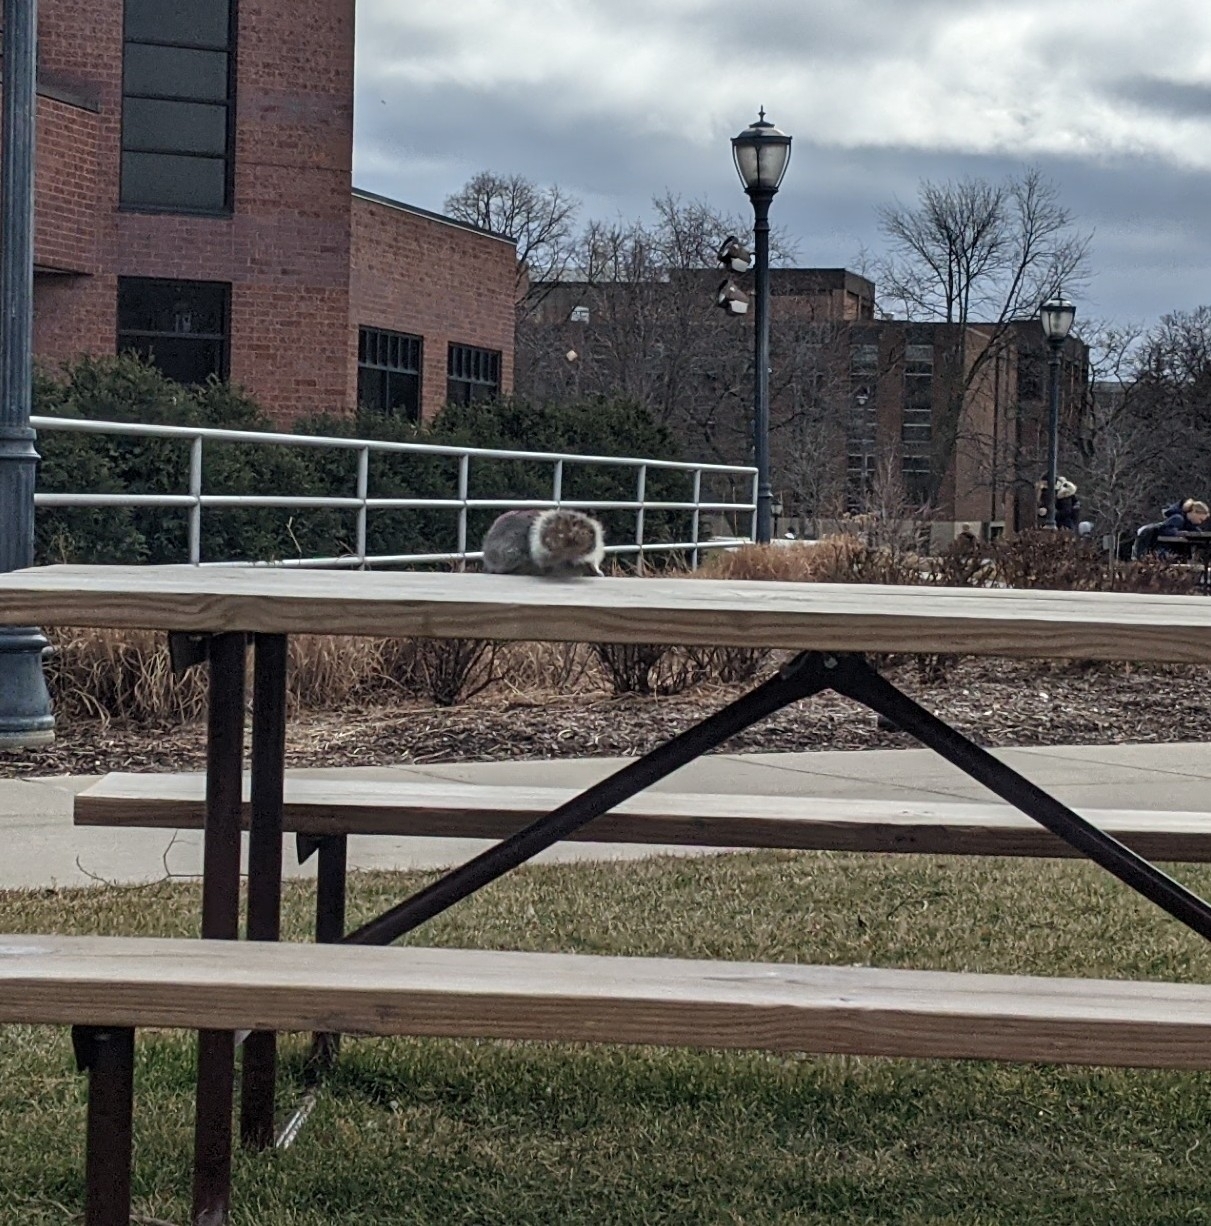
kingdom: Animalia
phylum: Chordata
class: Mammalia
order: Rodentia
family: Sciuridae
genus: Sciurus
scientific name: Sciurus carolinensis
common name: Eastern gray squirrel
